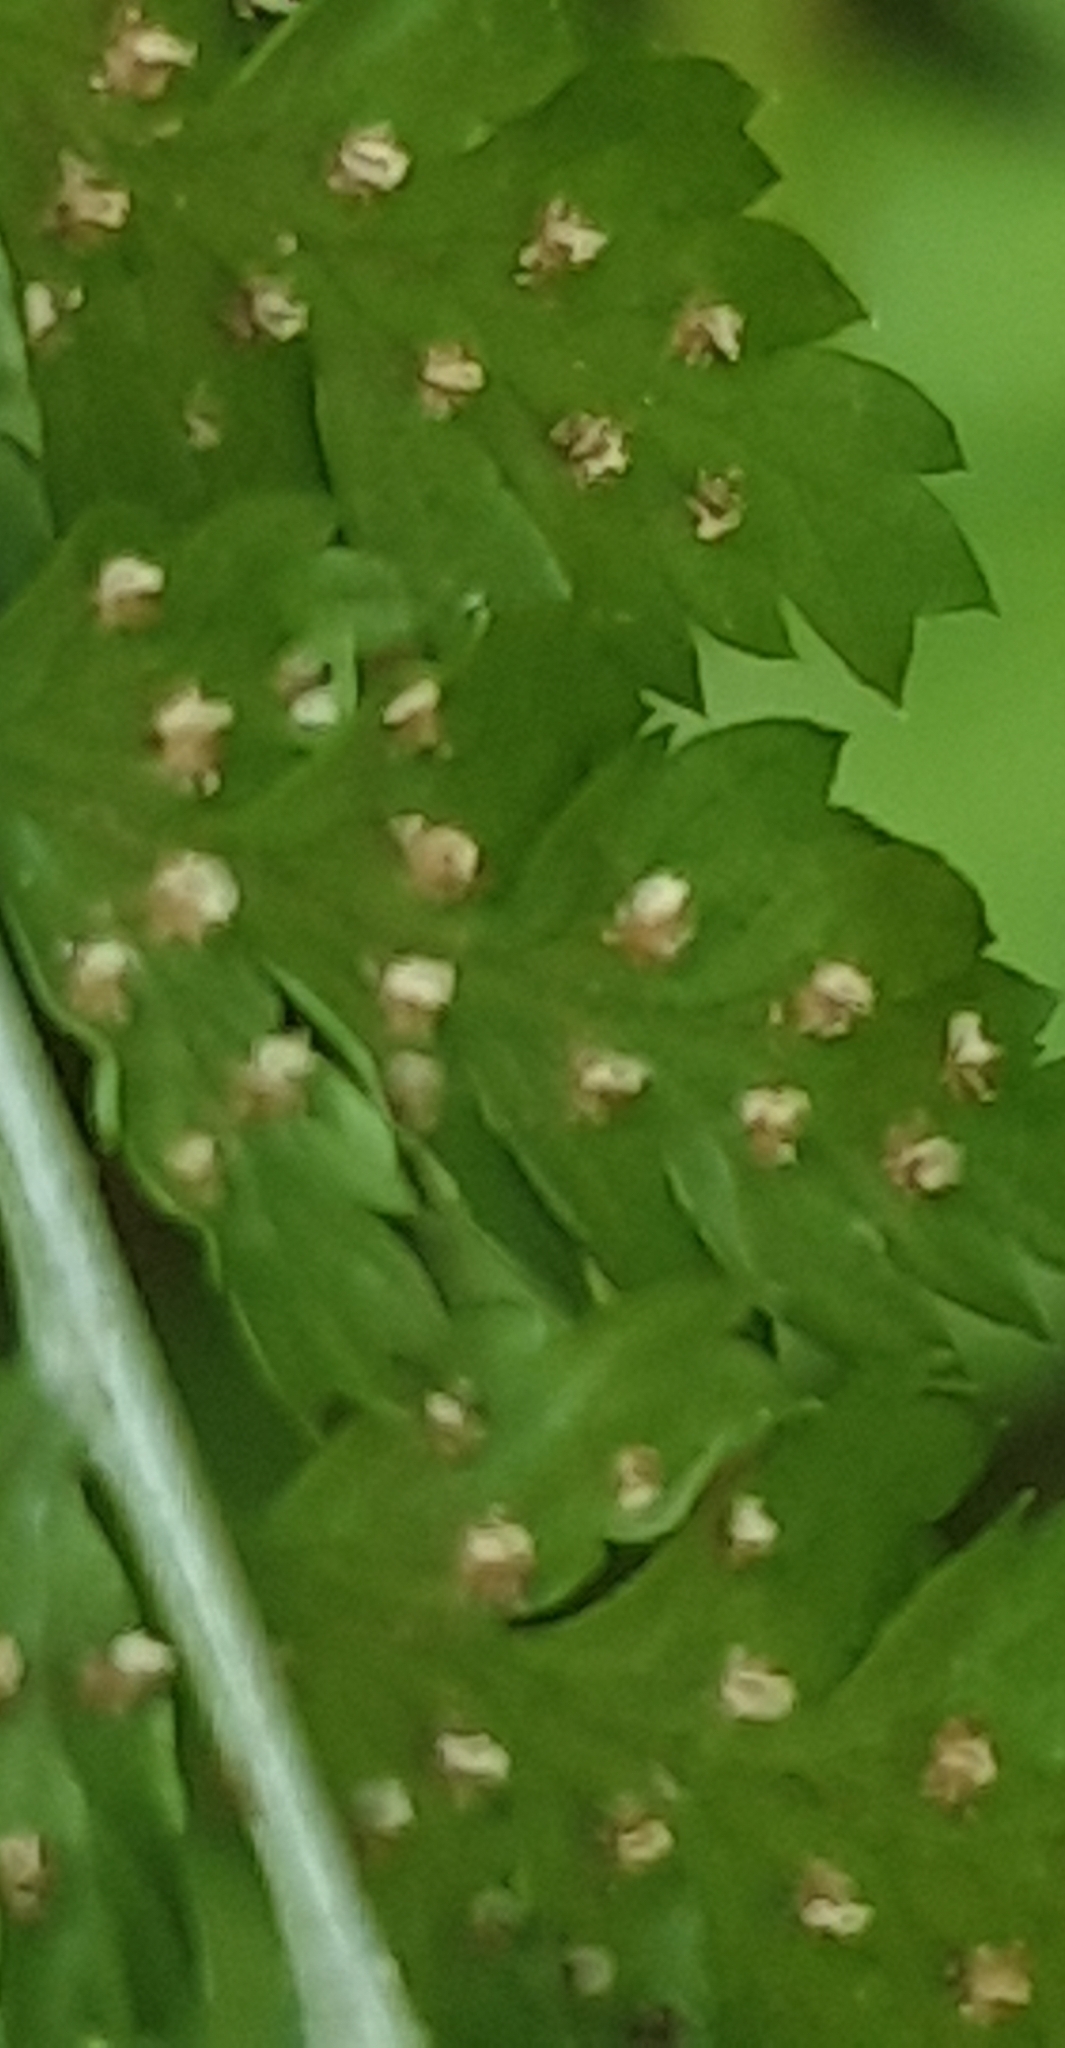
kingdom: Plantae
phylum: Tracheophyta
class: Polypodiopsida
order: Polypodiales
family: Dryopteridaceae
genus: Dryopteris
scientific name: Dryopteris dilatata
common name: Broad buckler-fern
